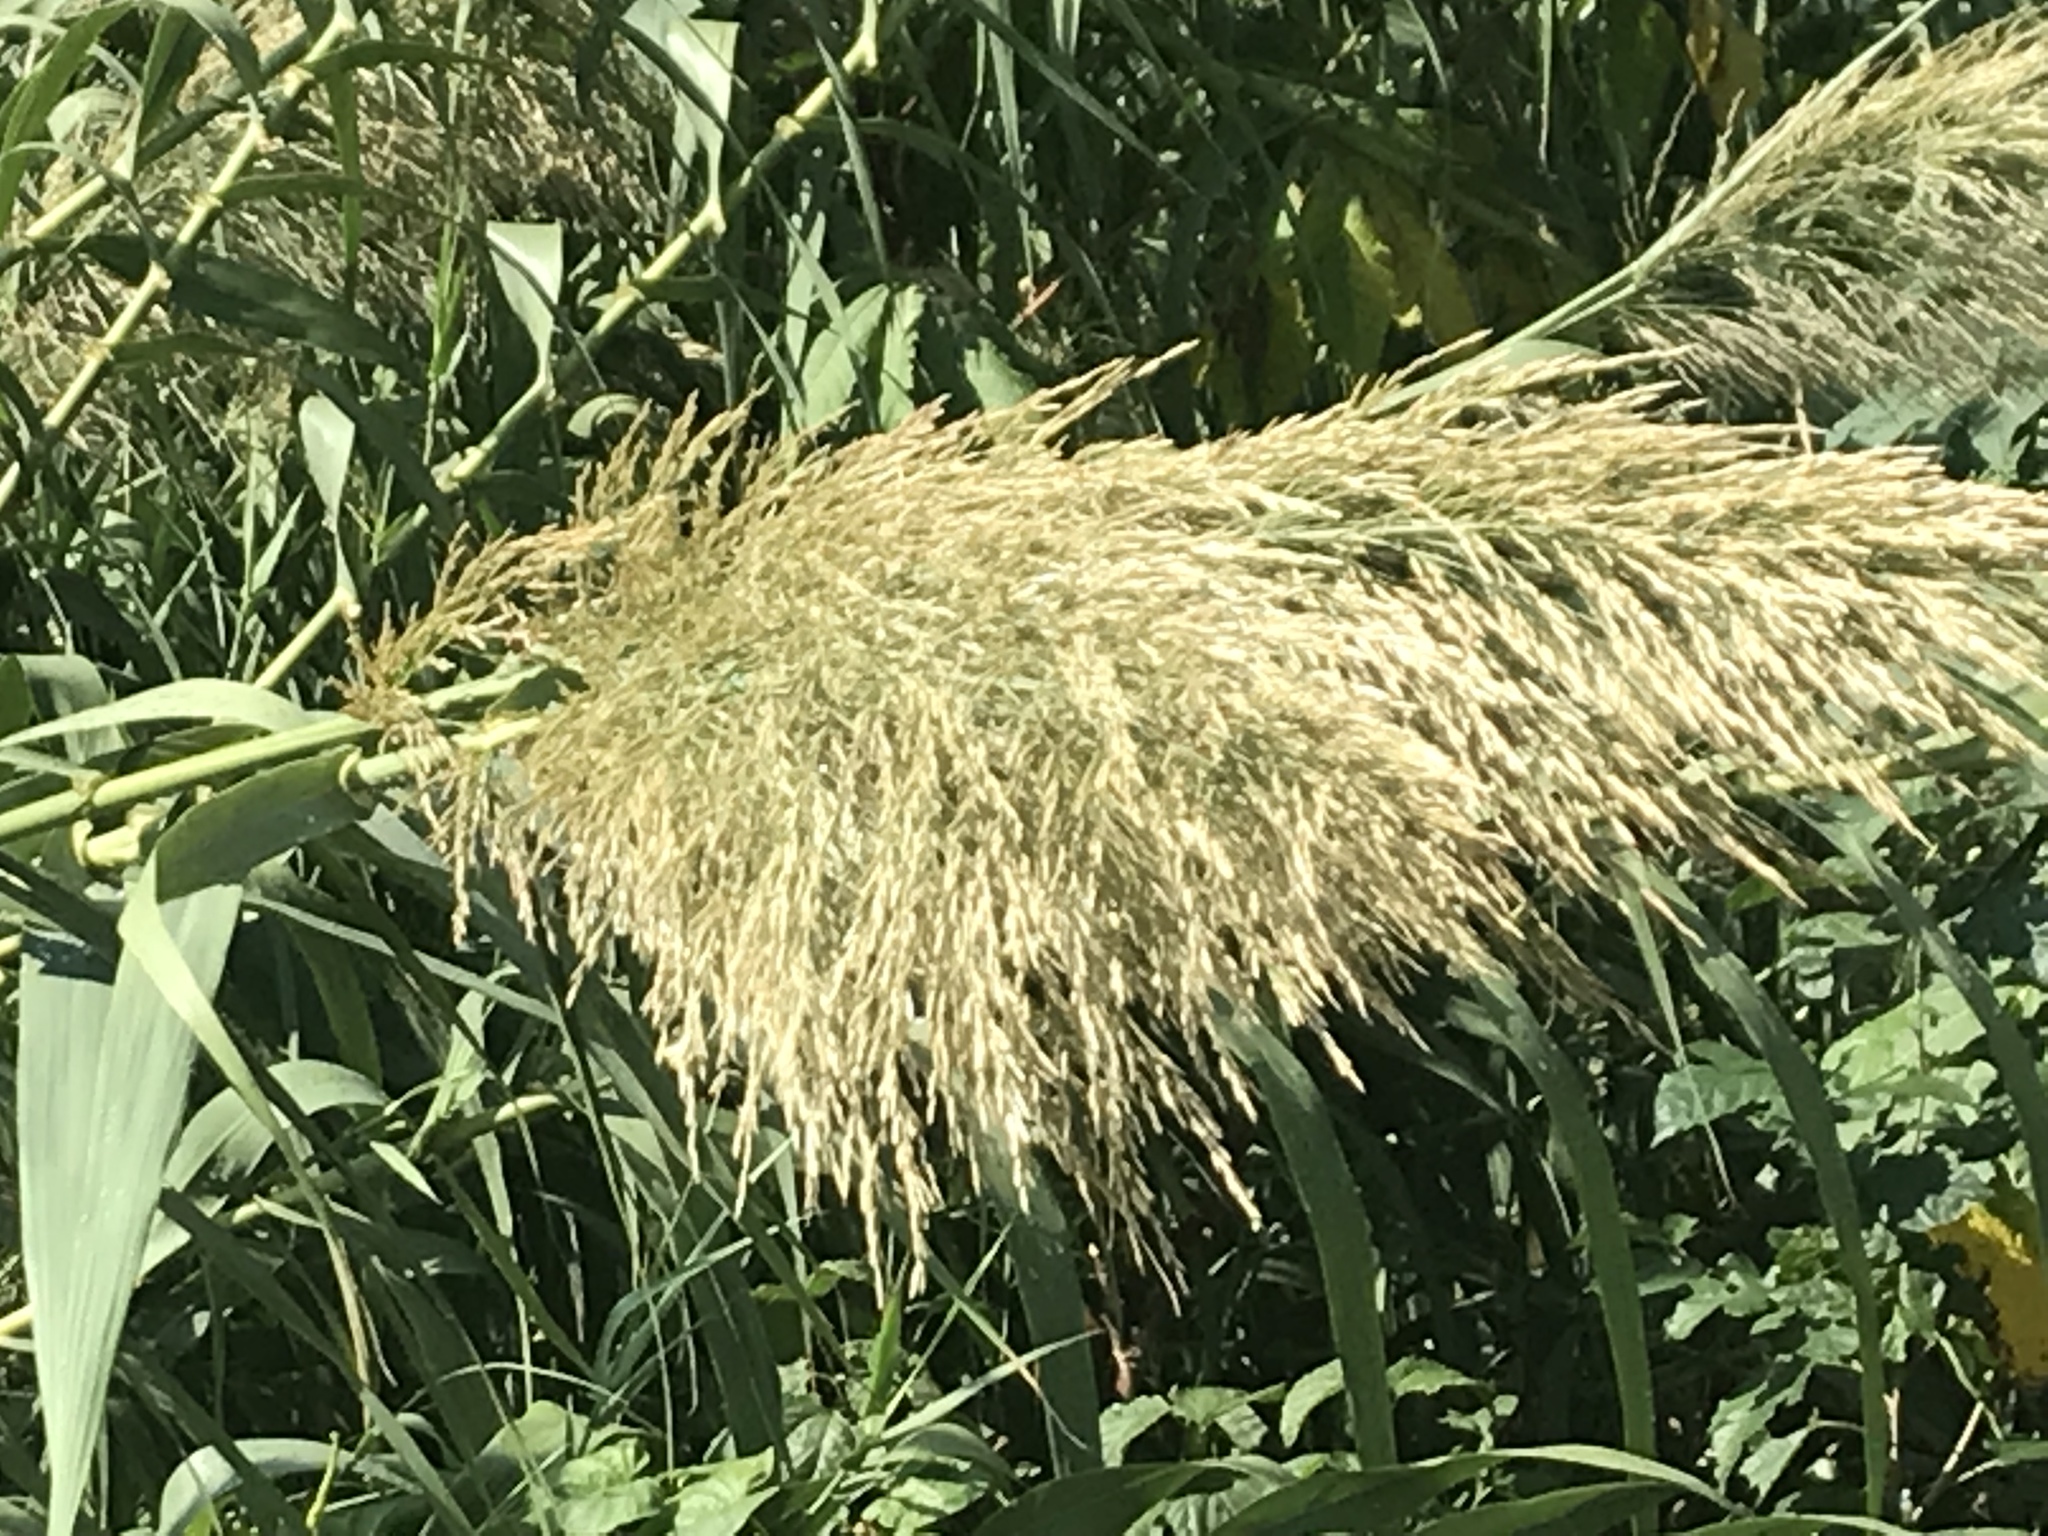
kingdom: Plantae
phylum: Tracheophyta
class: Liliopsida
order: Poales
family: Poaceae
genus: Arundo
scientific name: Arundo donax
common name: Giant reed
